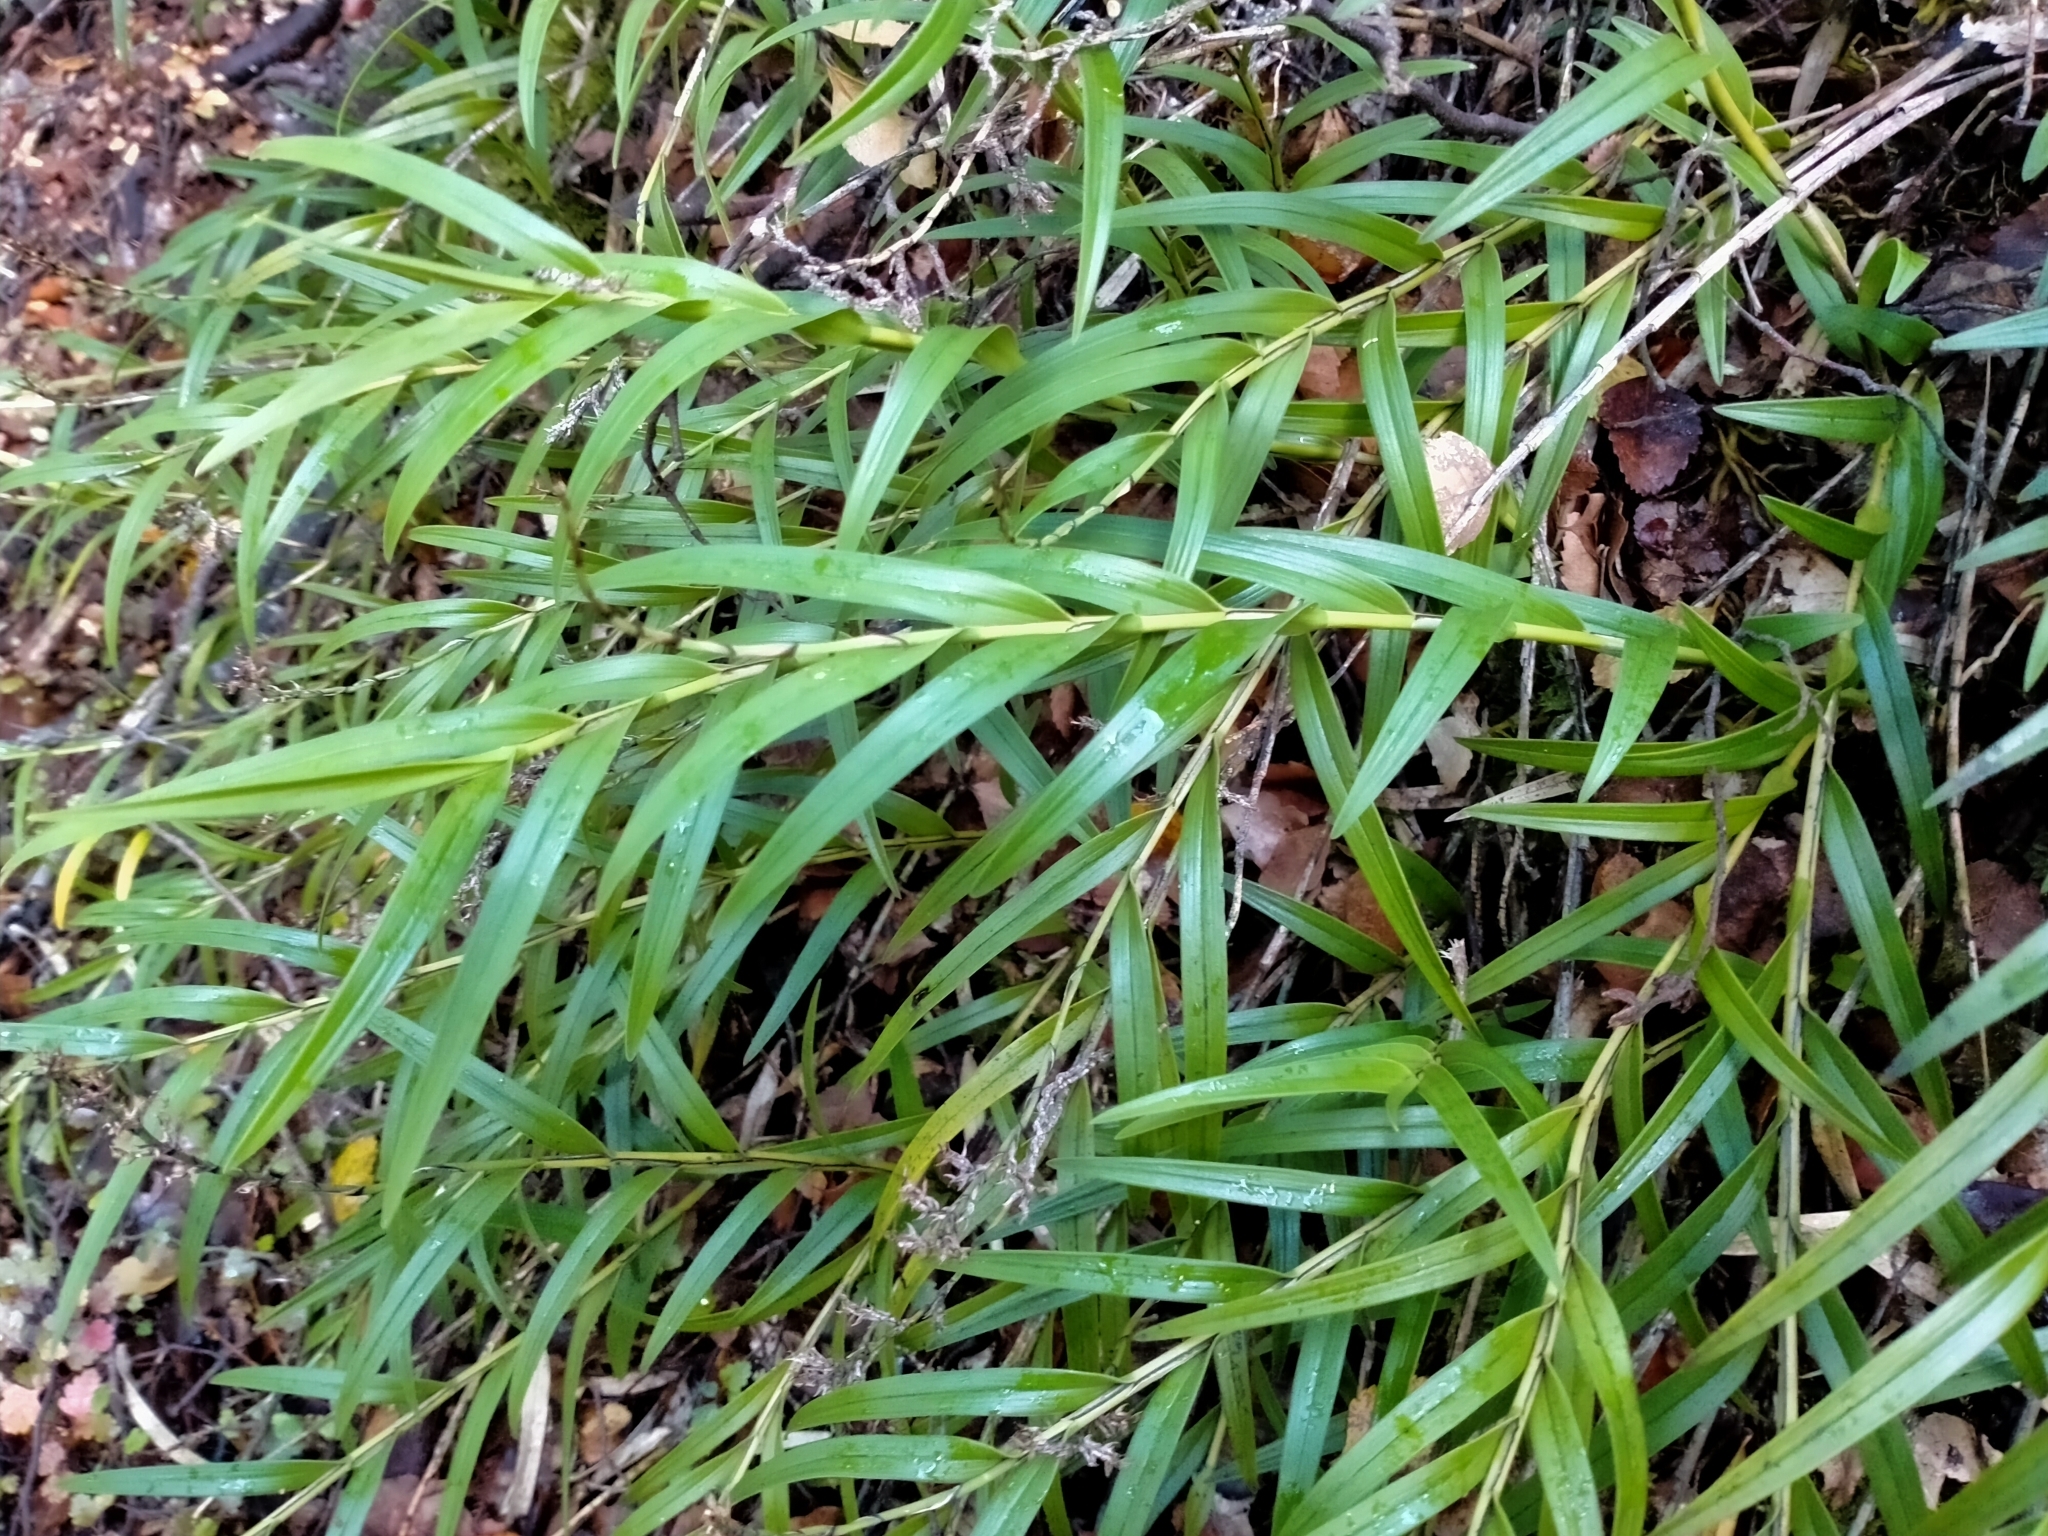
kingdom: Plantae
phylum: Tracheophyta
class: Liliopsida
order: Asparagales
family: Orchidaceae
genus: Earina
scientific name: Earina autumnalis
